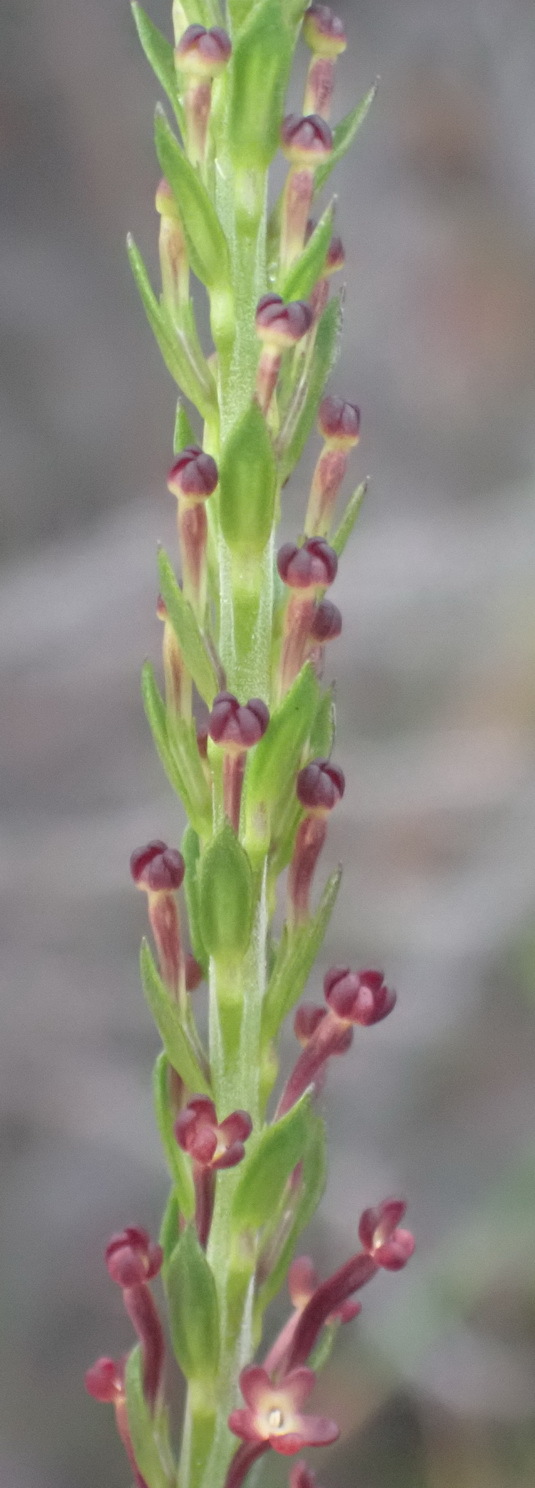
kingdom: Plantae
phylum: Tracheophyta
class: Magnoliopsida
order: Lamiales
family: Scrophulariaceae
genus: Microdon
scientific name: Microdon dubius
